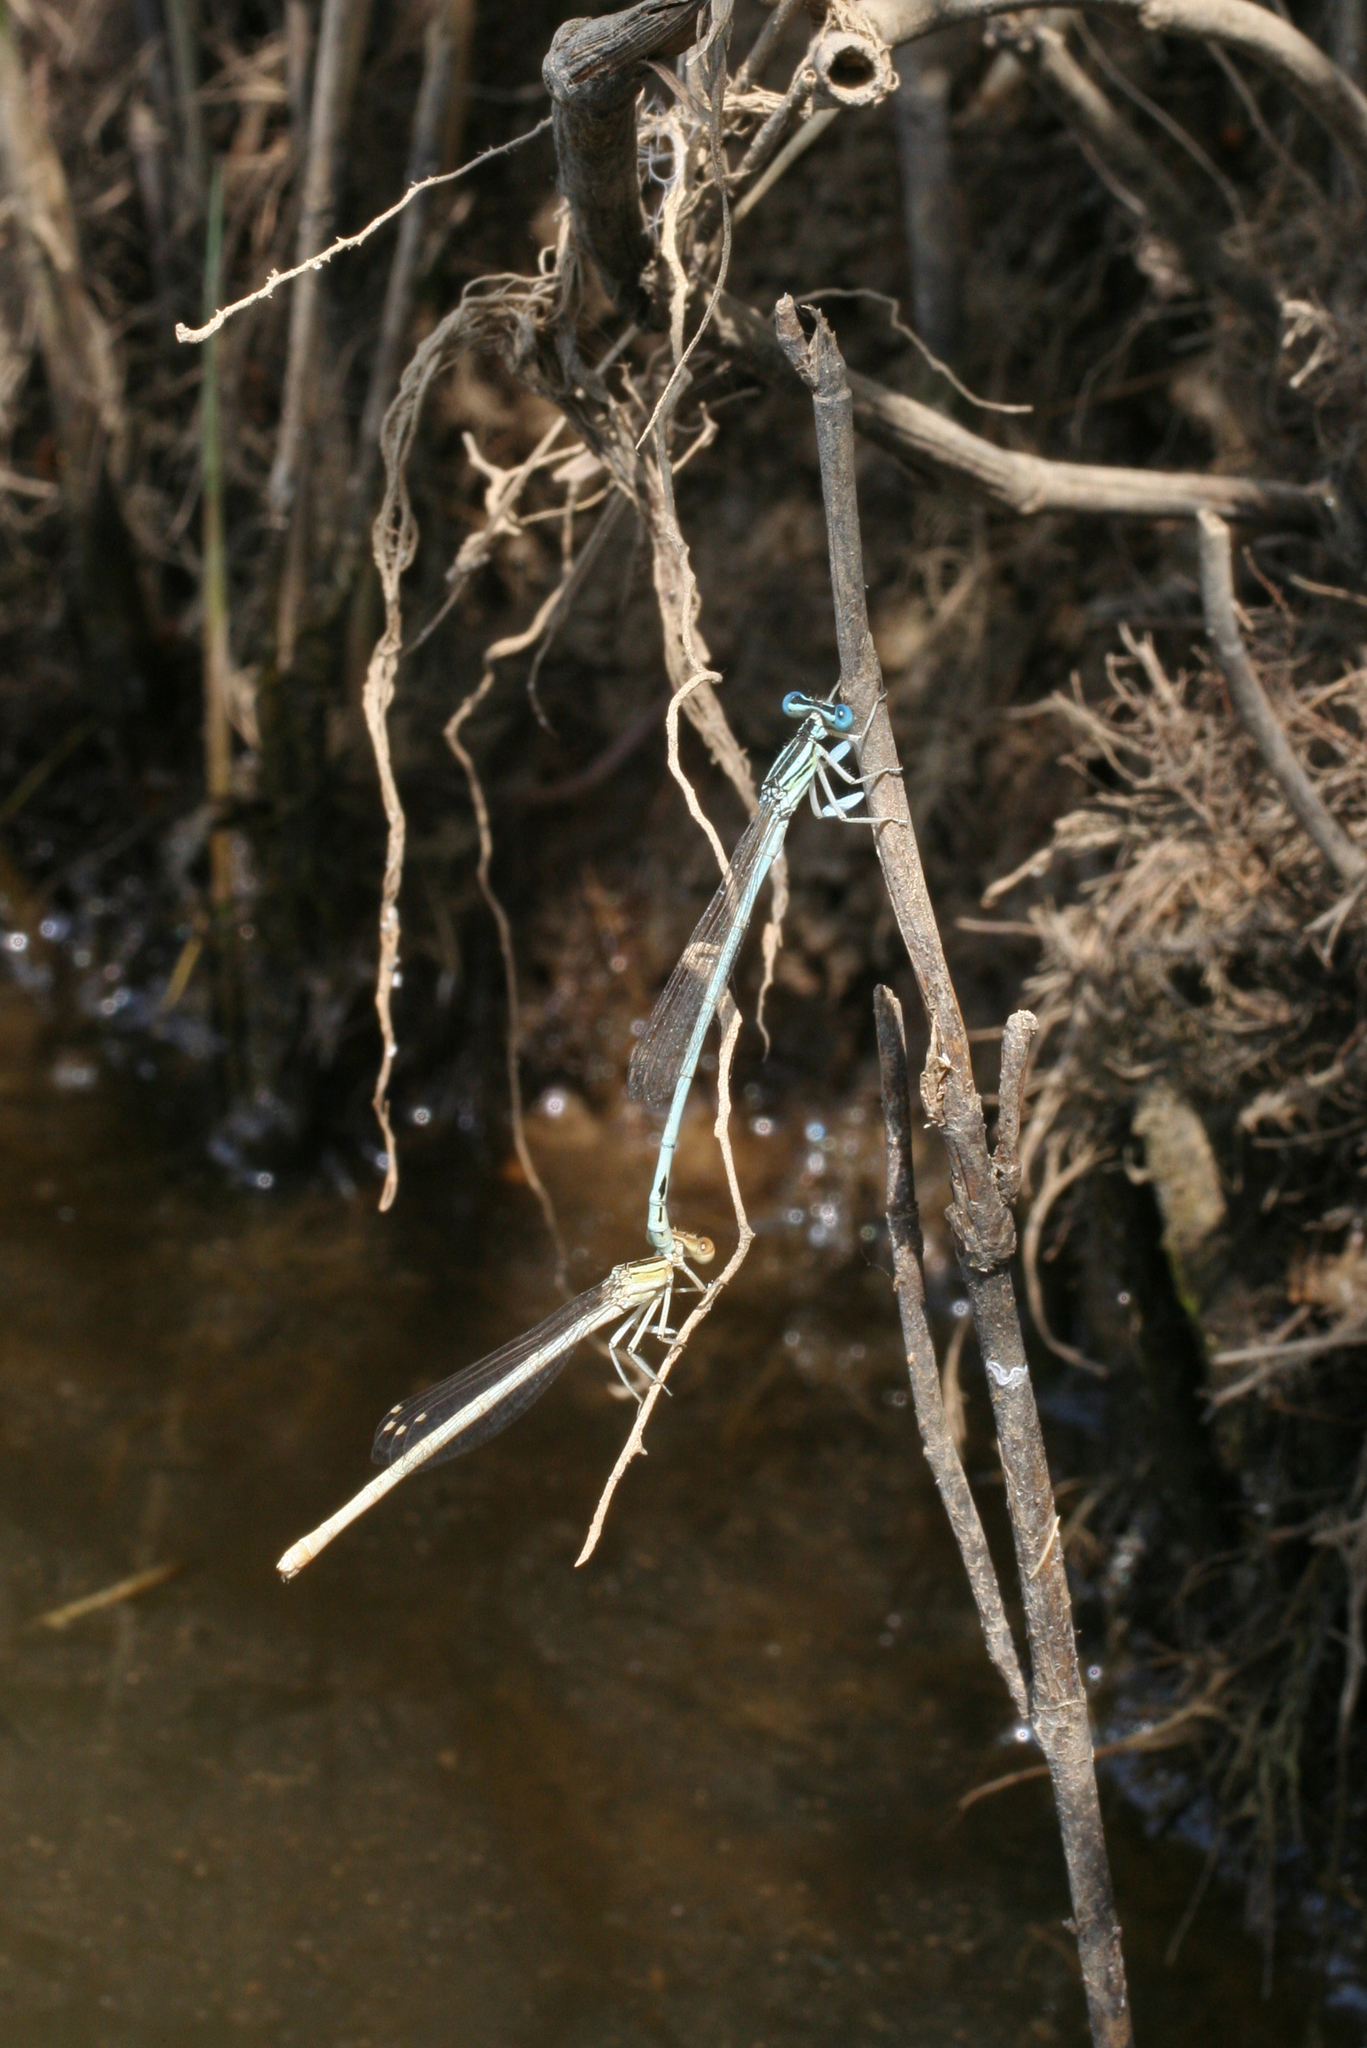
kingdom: Animalia
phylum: Arthropoda
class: Insecta
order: Odonata
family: Platycnemididae
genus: Platycnemis
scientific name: Platycnemis dealbata
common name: Ivory featherleg
